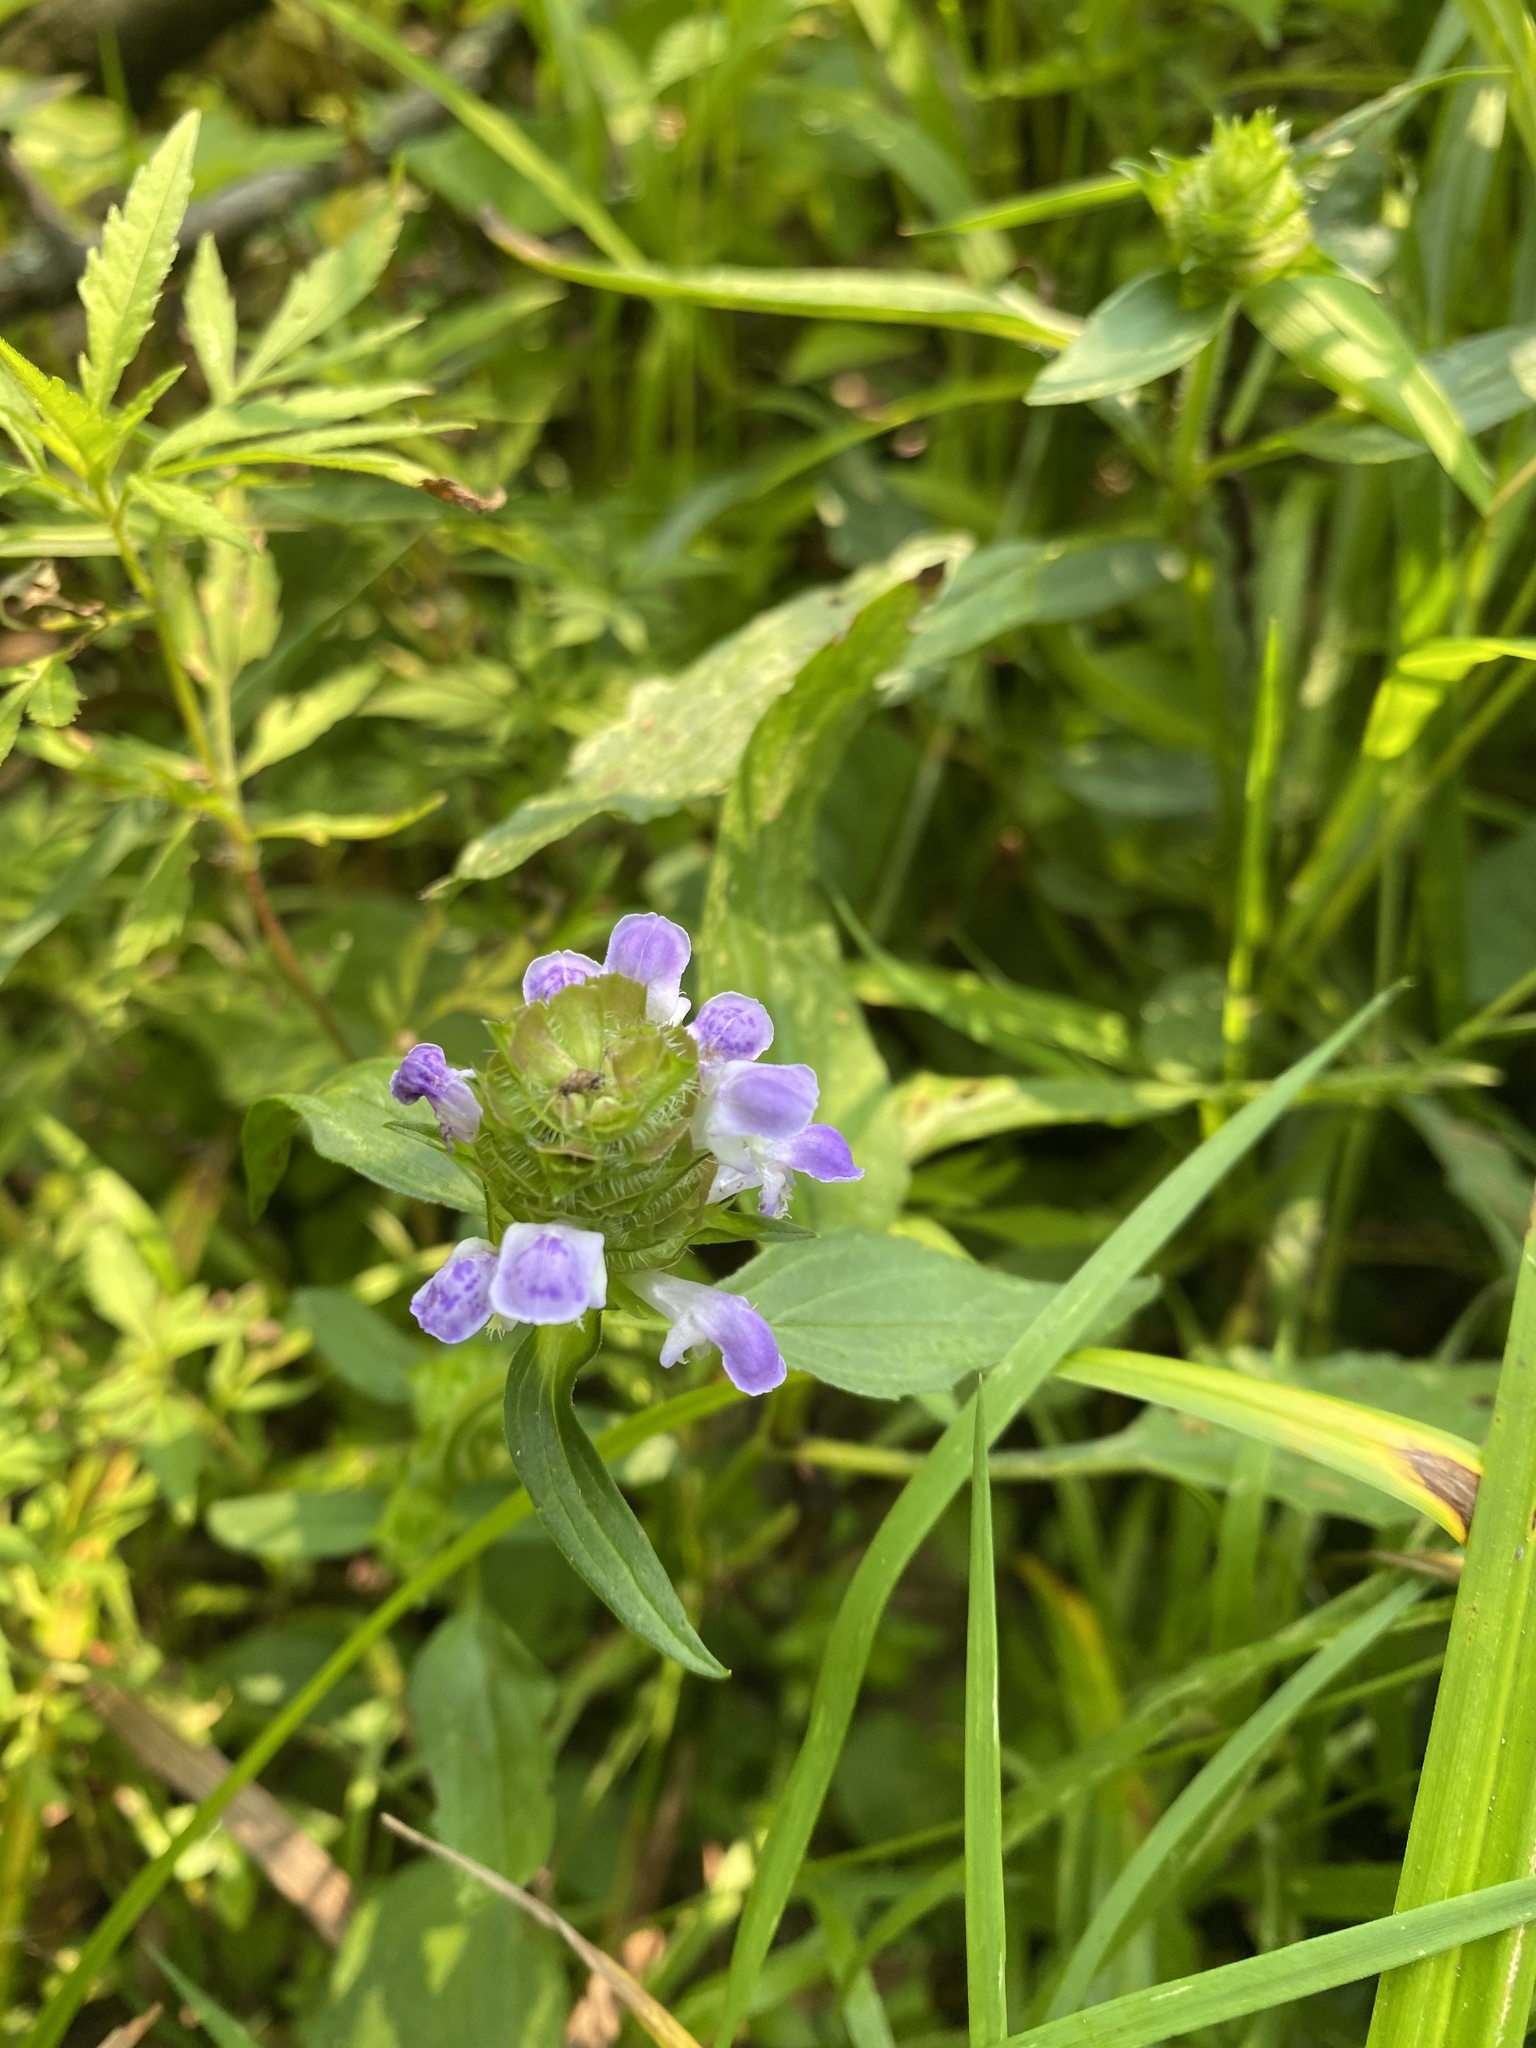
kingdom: Plantae
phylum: Tracheophyta
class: Magnoliopsida
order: Lamiales
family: Lamiaceae
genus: Prunella
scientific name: Prunella vulgaris
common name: Heal-all
